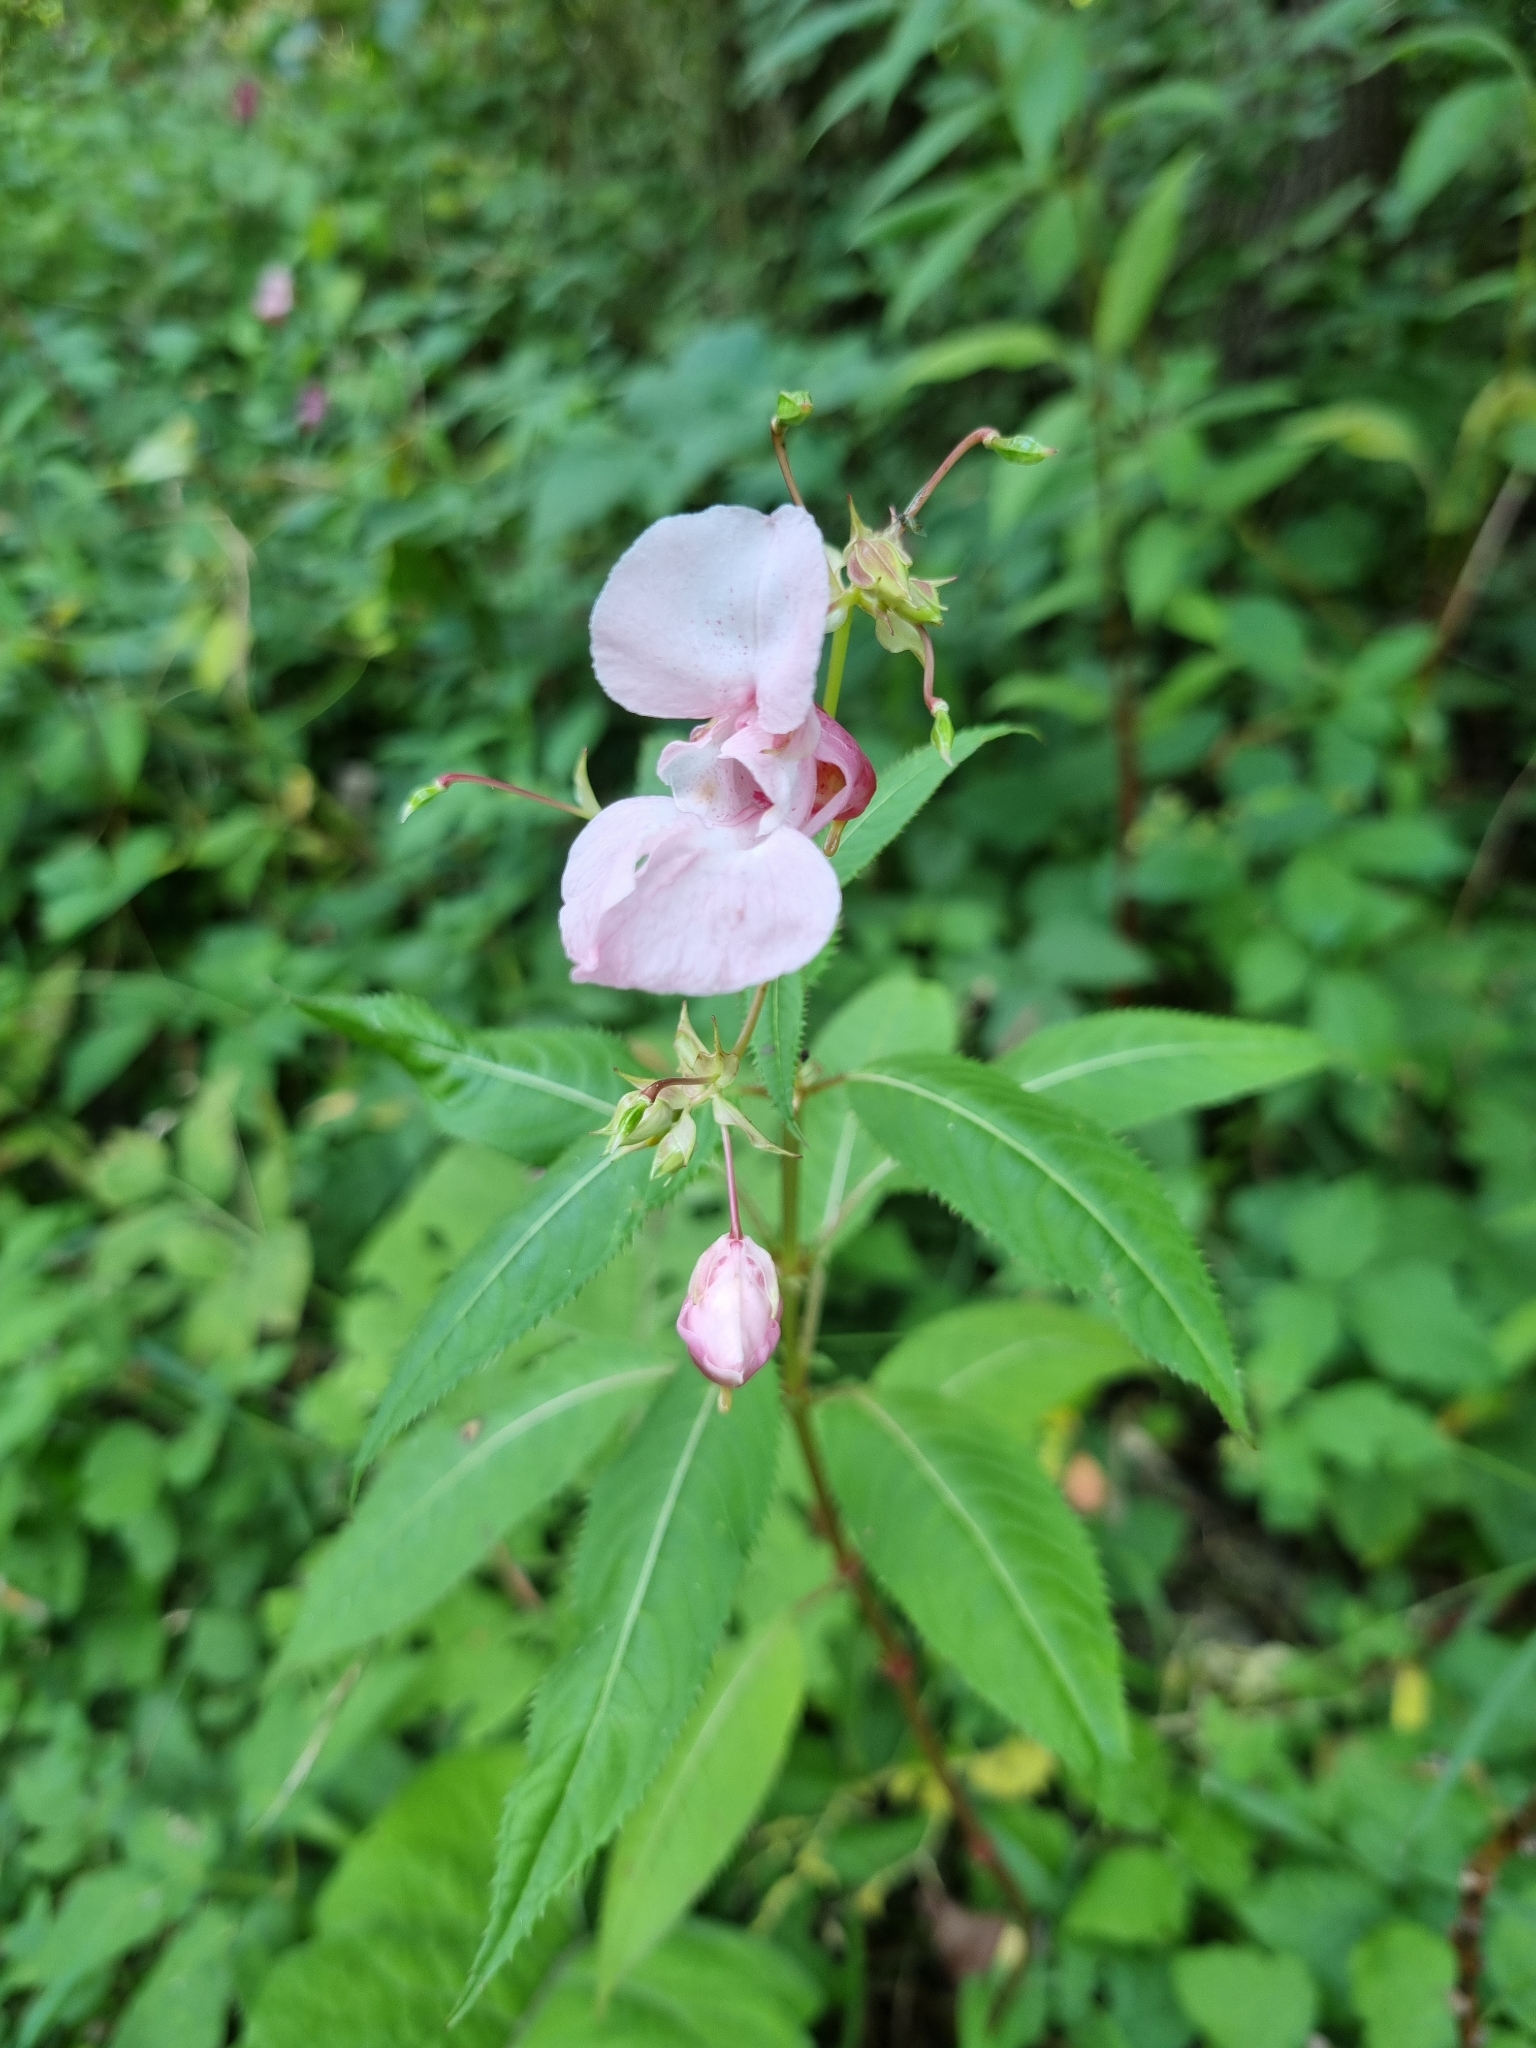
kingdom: Plantae
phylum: Tracheophyta
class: Magnoliopsida
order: Ericales
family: Balsaminaceae
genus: Impatiens
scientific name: Impatiens glandulifera
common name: Himalayan balsam
